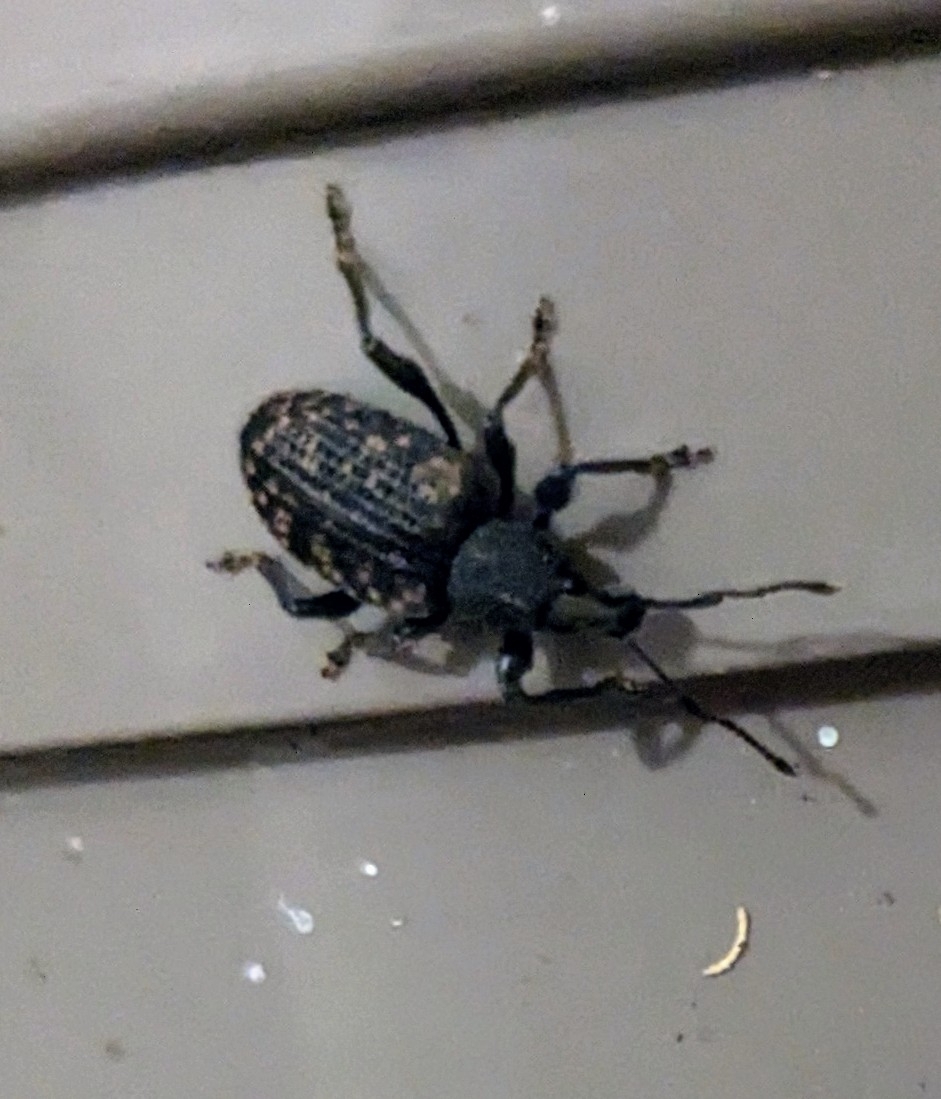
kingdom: Animalia
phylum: Arthropoda
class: Insecta
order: Coleoptera
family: Curculionidae
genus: Otiorhynchus
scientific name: Otiorhynchus sulcatus
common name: Black vine weevil
